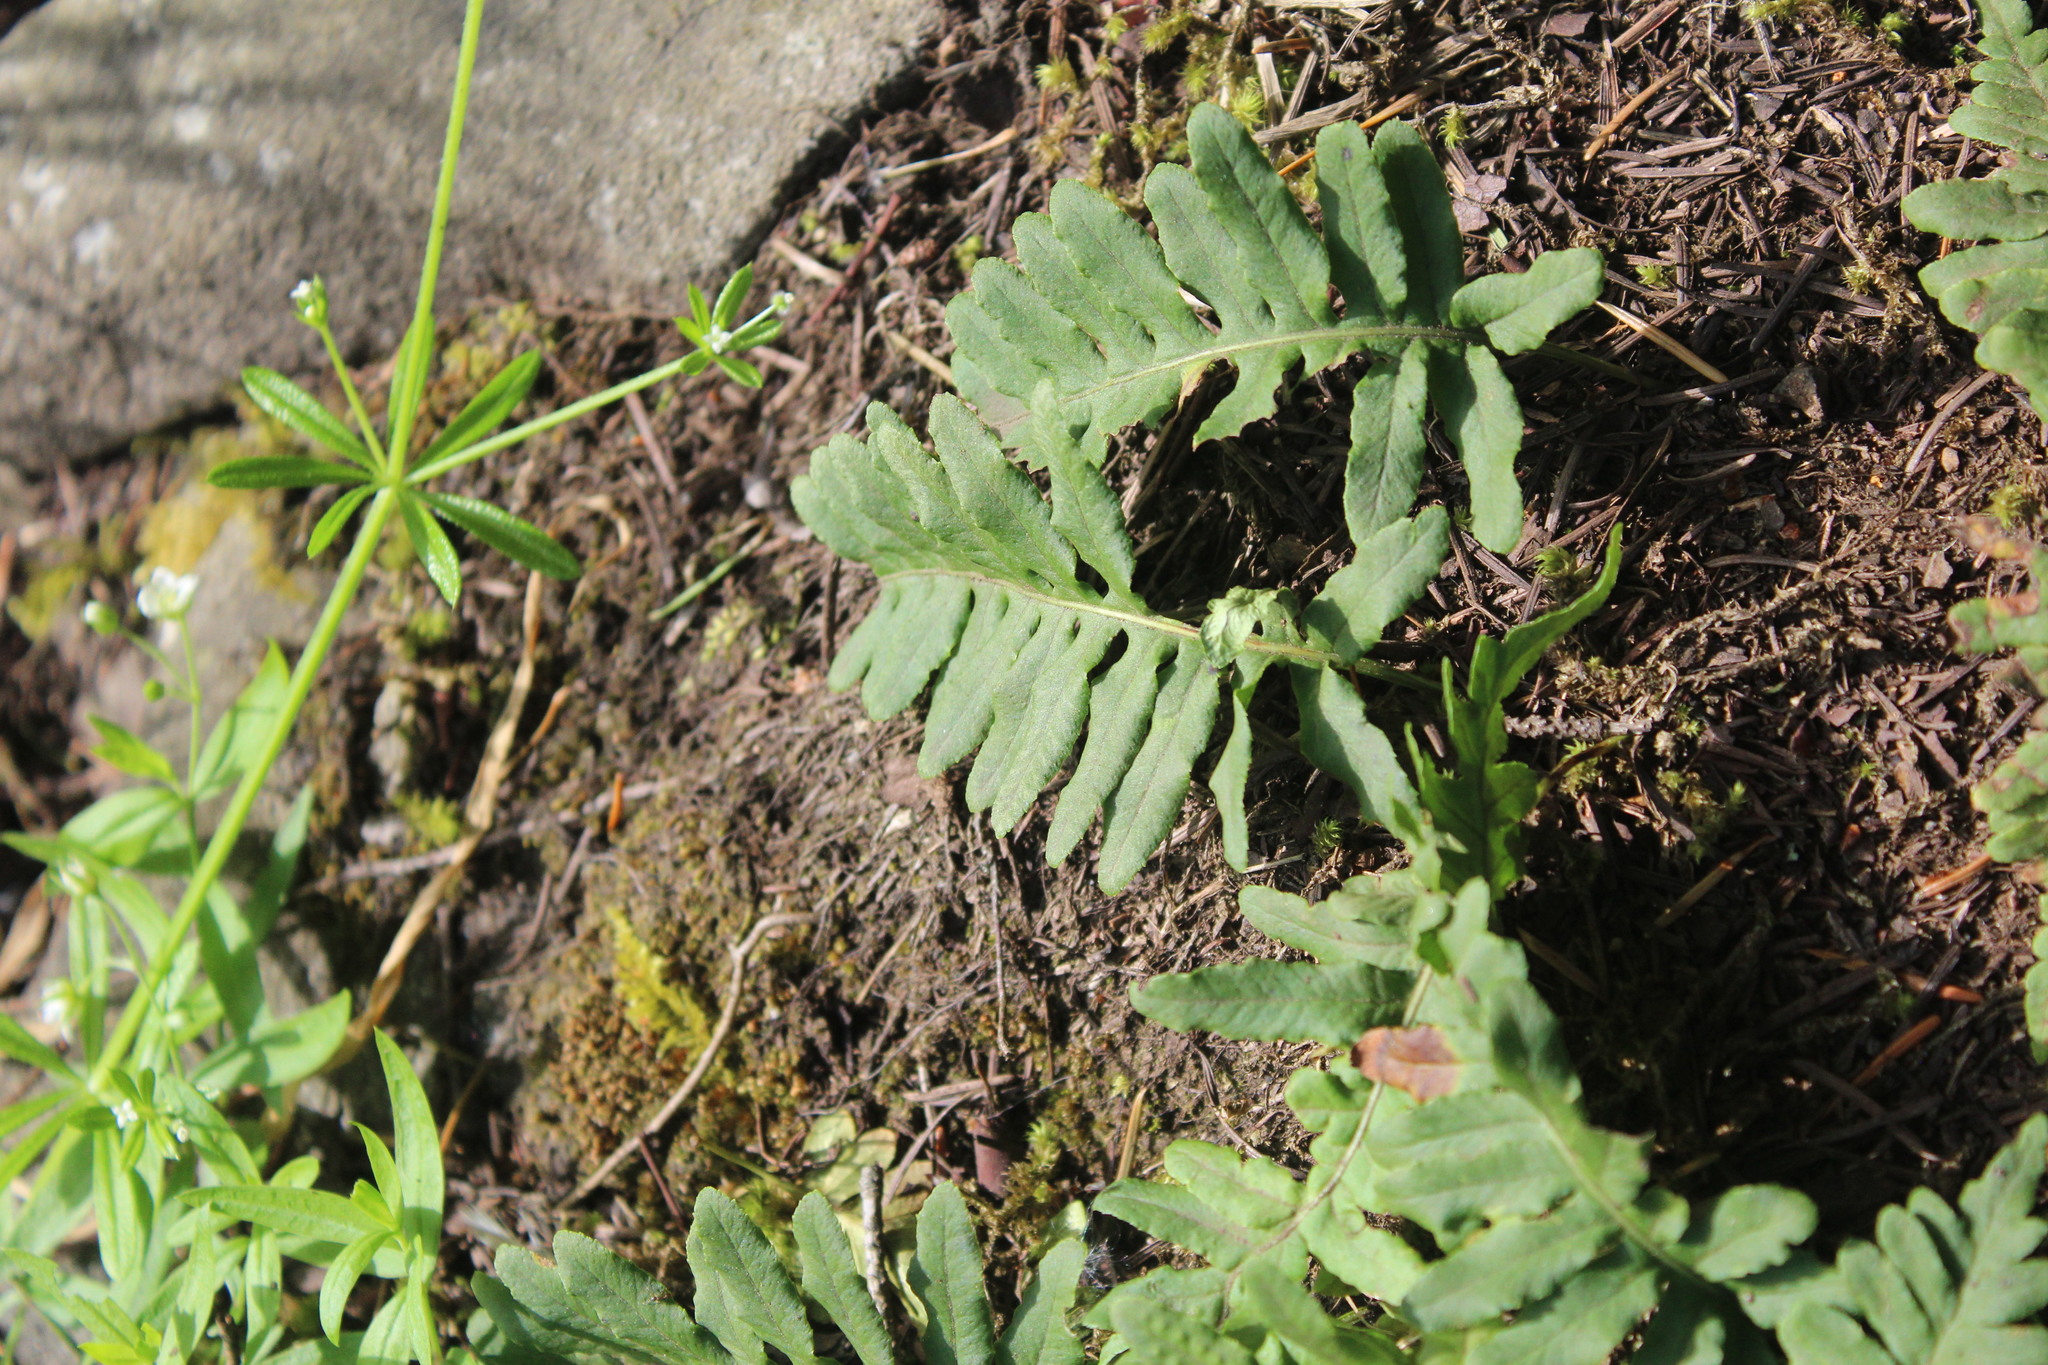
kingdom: Plantae
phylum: Tracheophyta
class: Polypodiopsida
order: Polypodiales
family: Polypodiaceae
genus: Polypodium
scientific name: Polypodium glycyrrhiza
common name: Licorice fern
